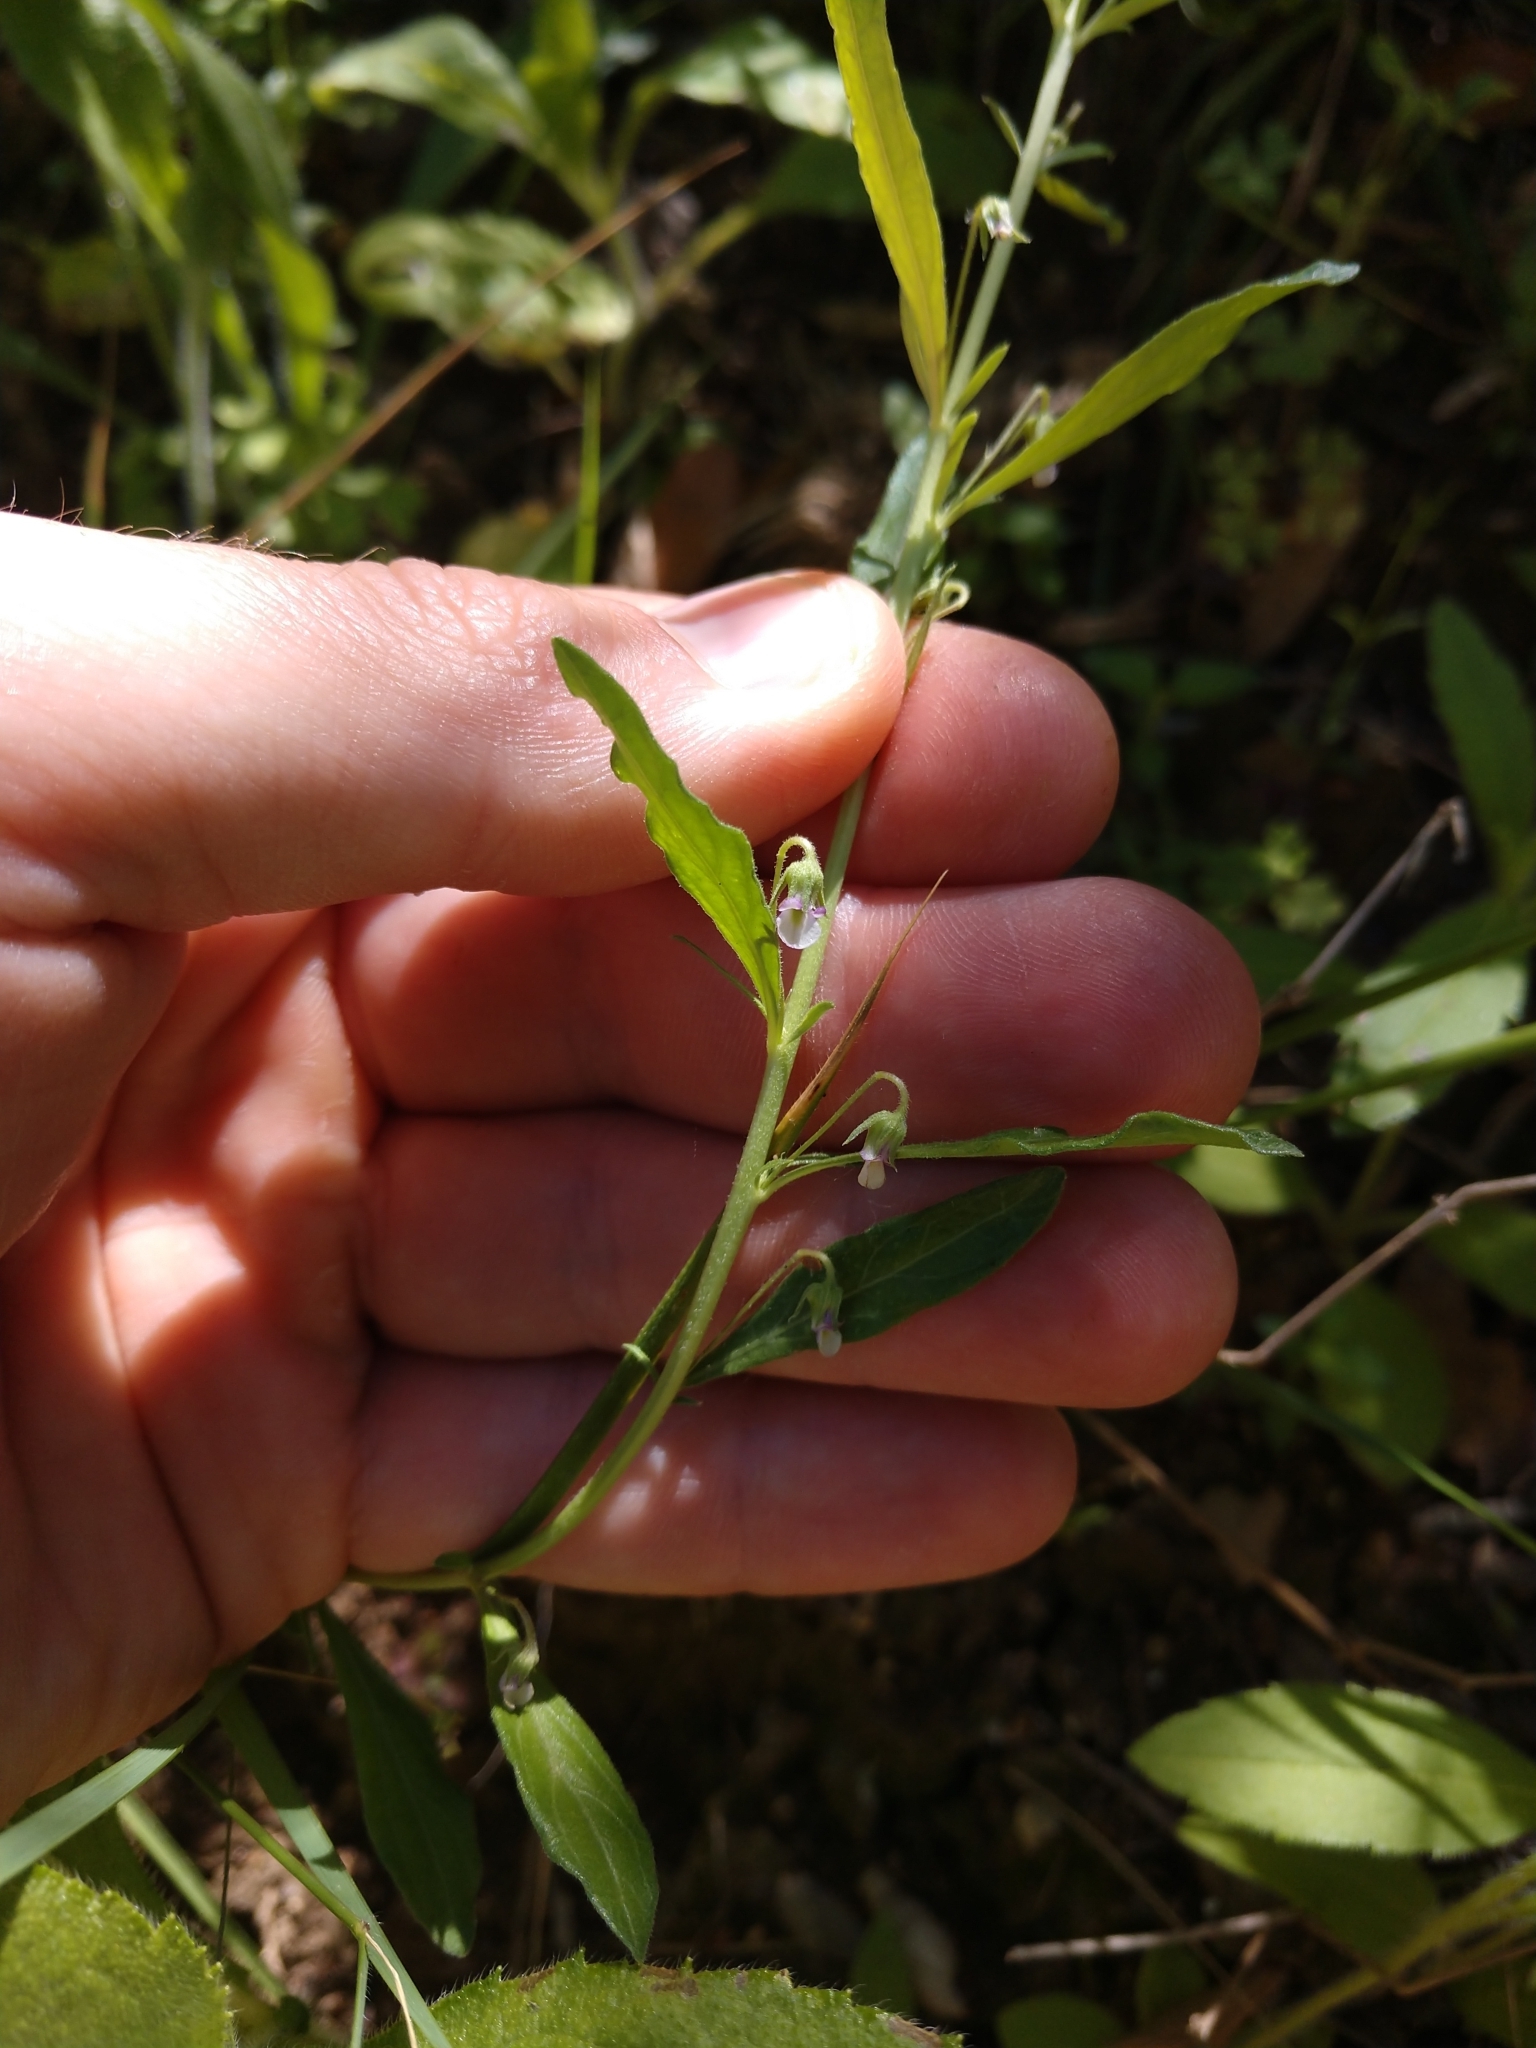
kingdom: Plantae
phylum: Tracheophyta
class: Magnoliopsida
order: Malpighiales
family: Violaceae
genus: Pombalia
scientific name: Pombalia verticillata
